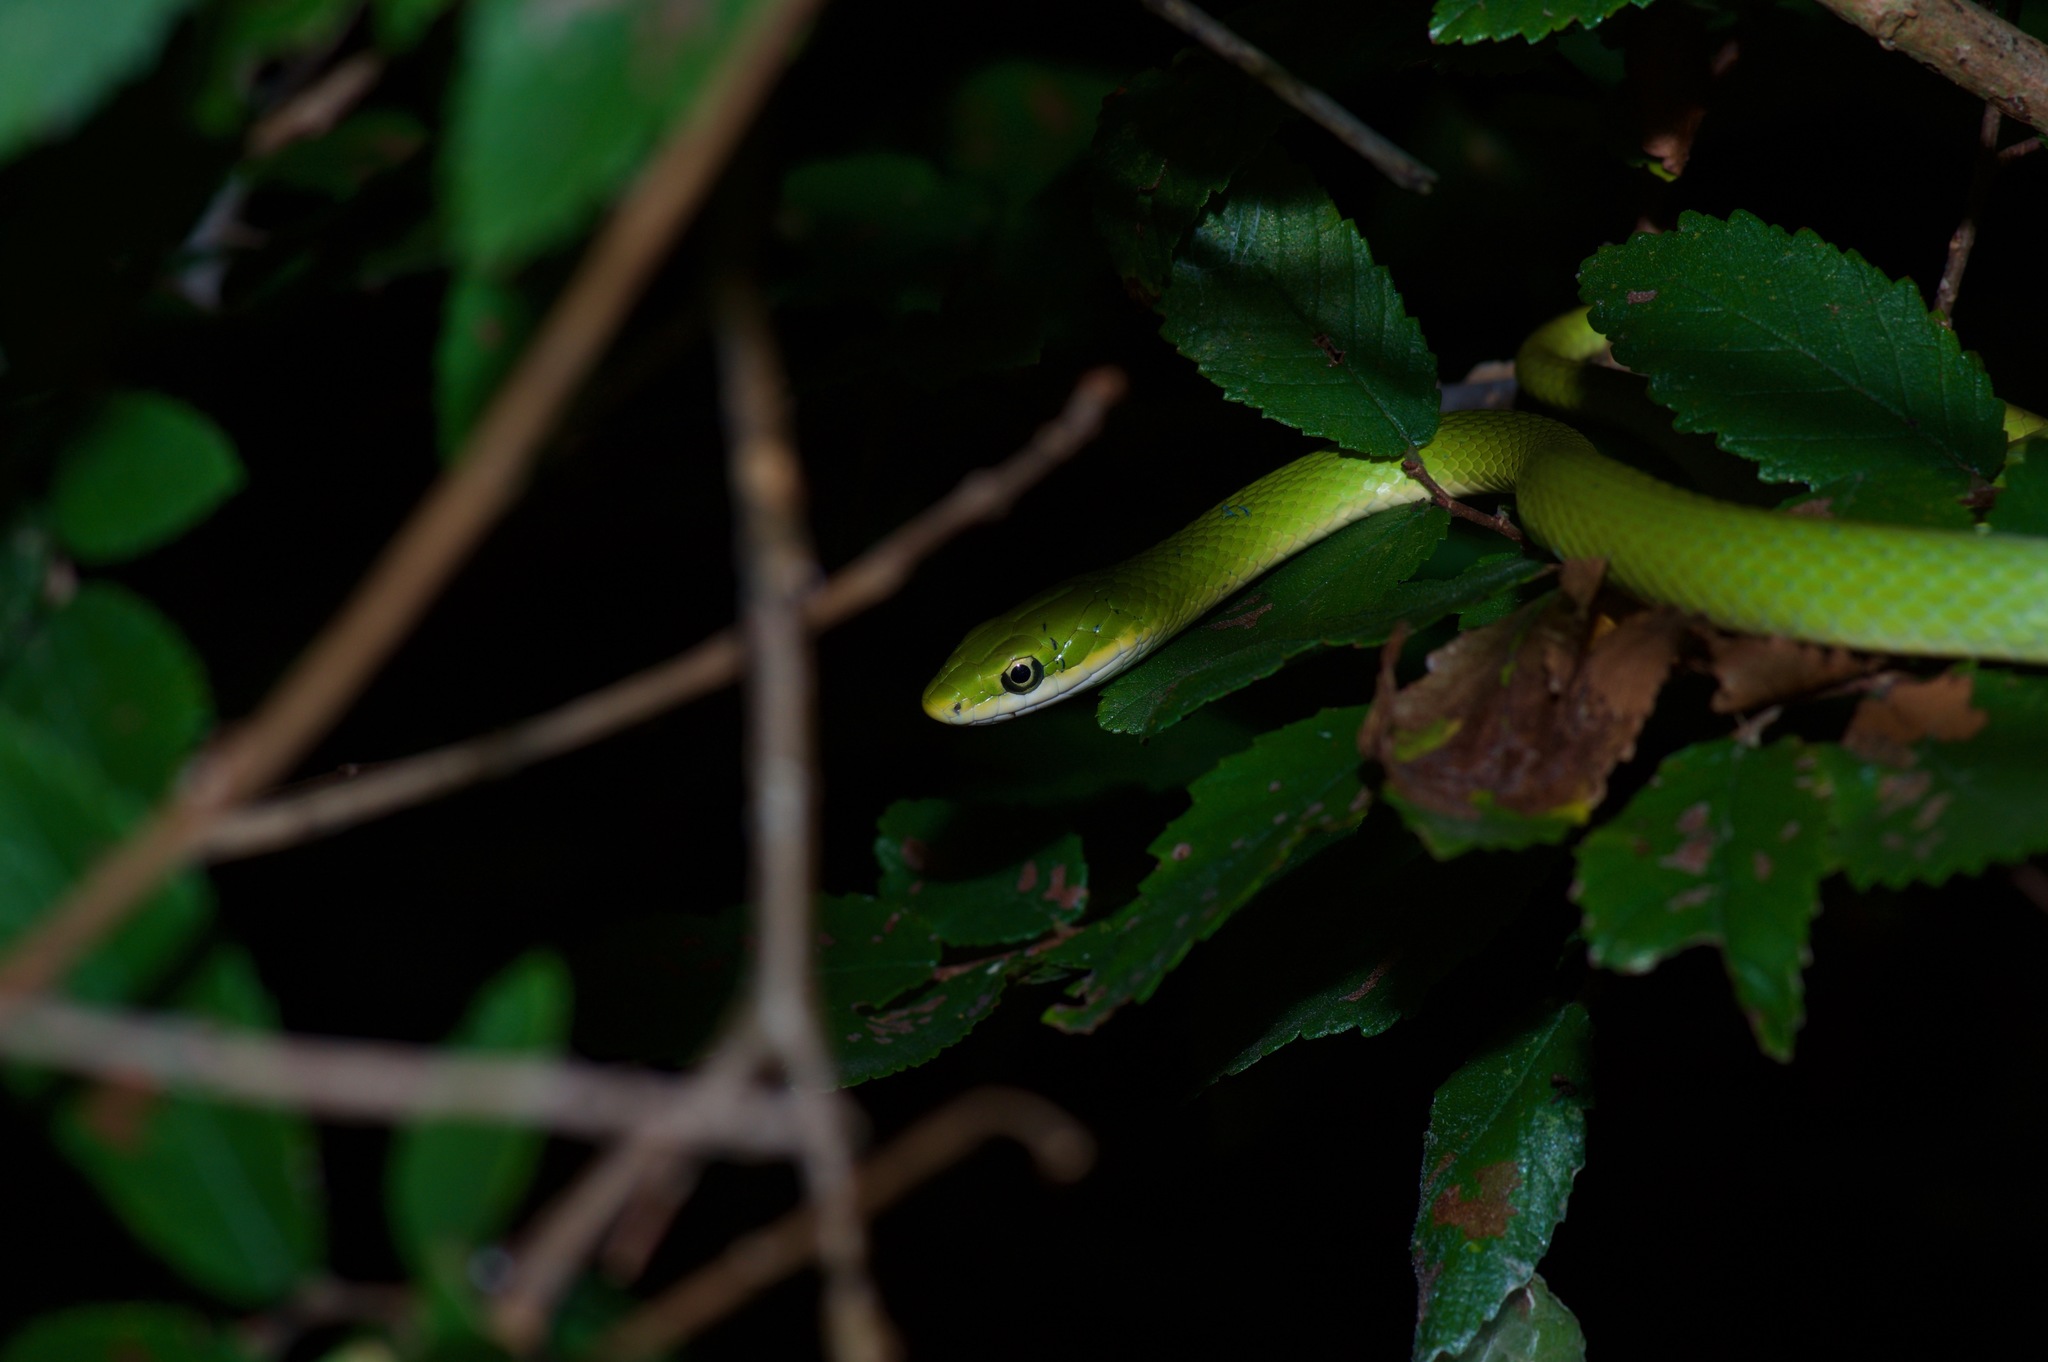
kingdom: Animalia
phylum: Chordata
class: Squamata
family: Colubridae
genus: Opheodrys
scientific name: Opheodrys aestivus
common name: Rough greensnake
